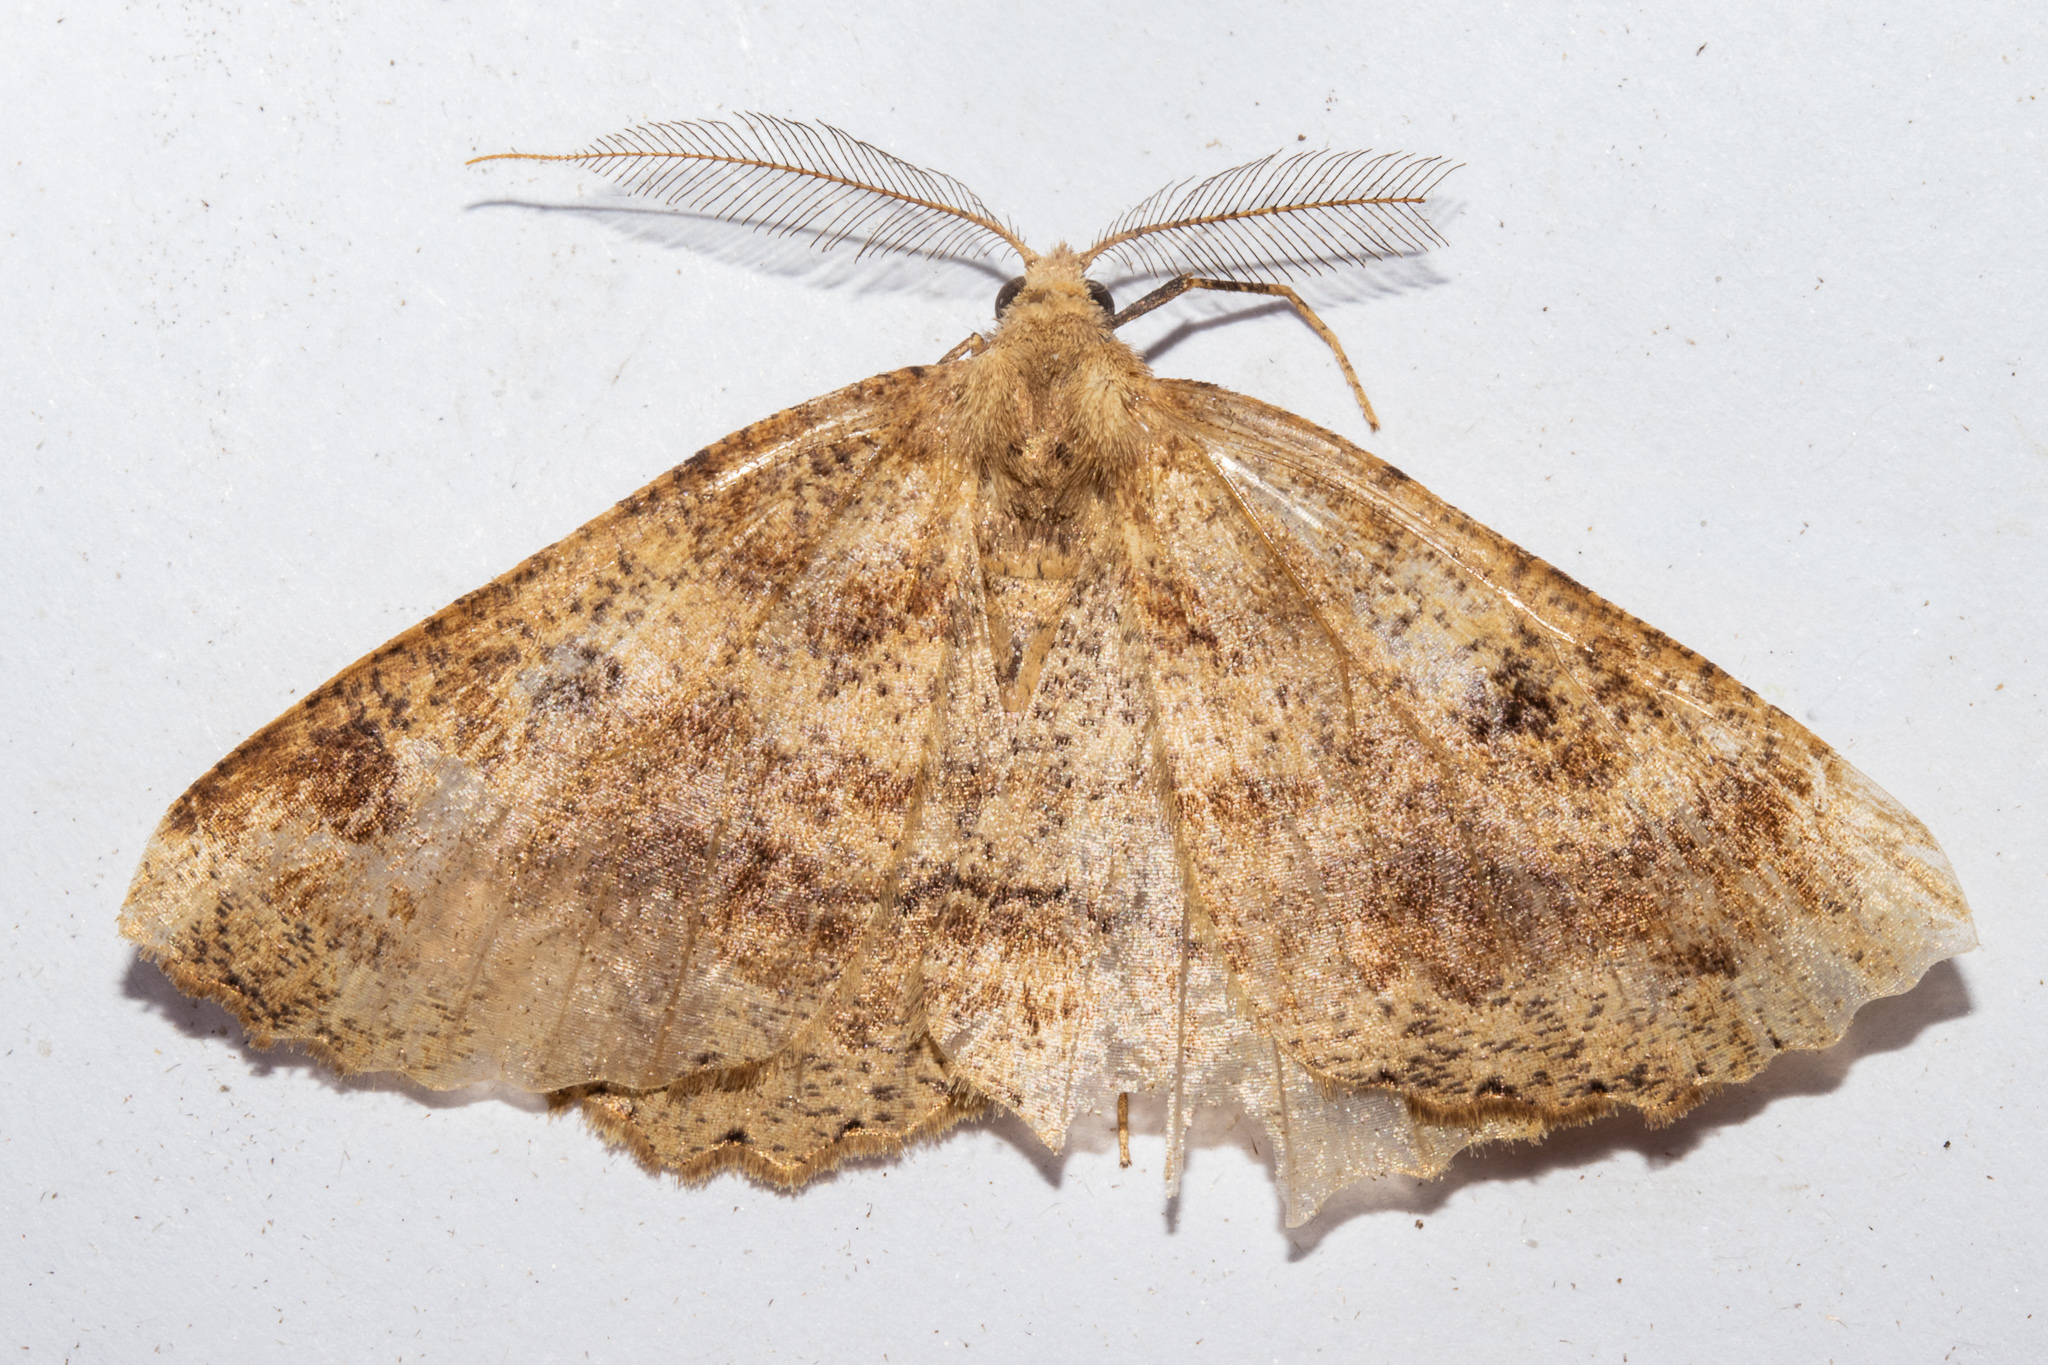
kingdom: Animalia
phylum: Arthropoda
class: Insecta
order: Lepidoptera
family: Geometridae
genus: Cleora
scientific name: Cleora scriptaria
